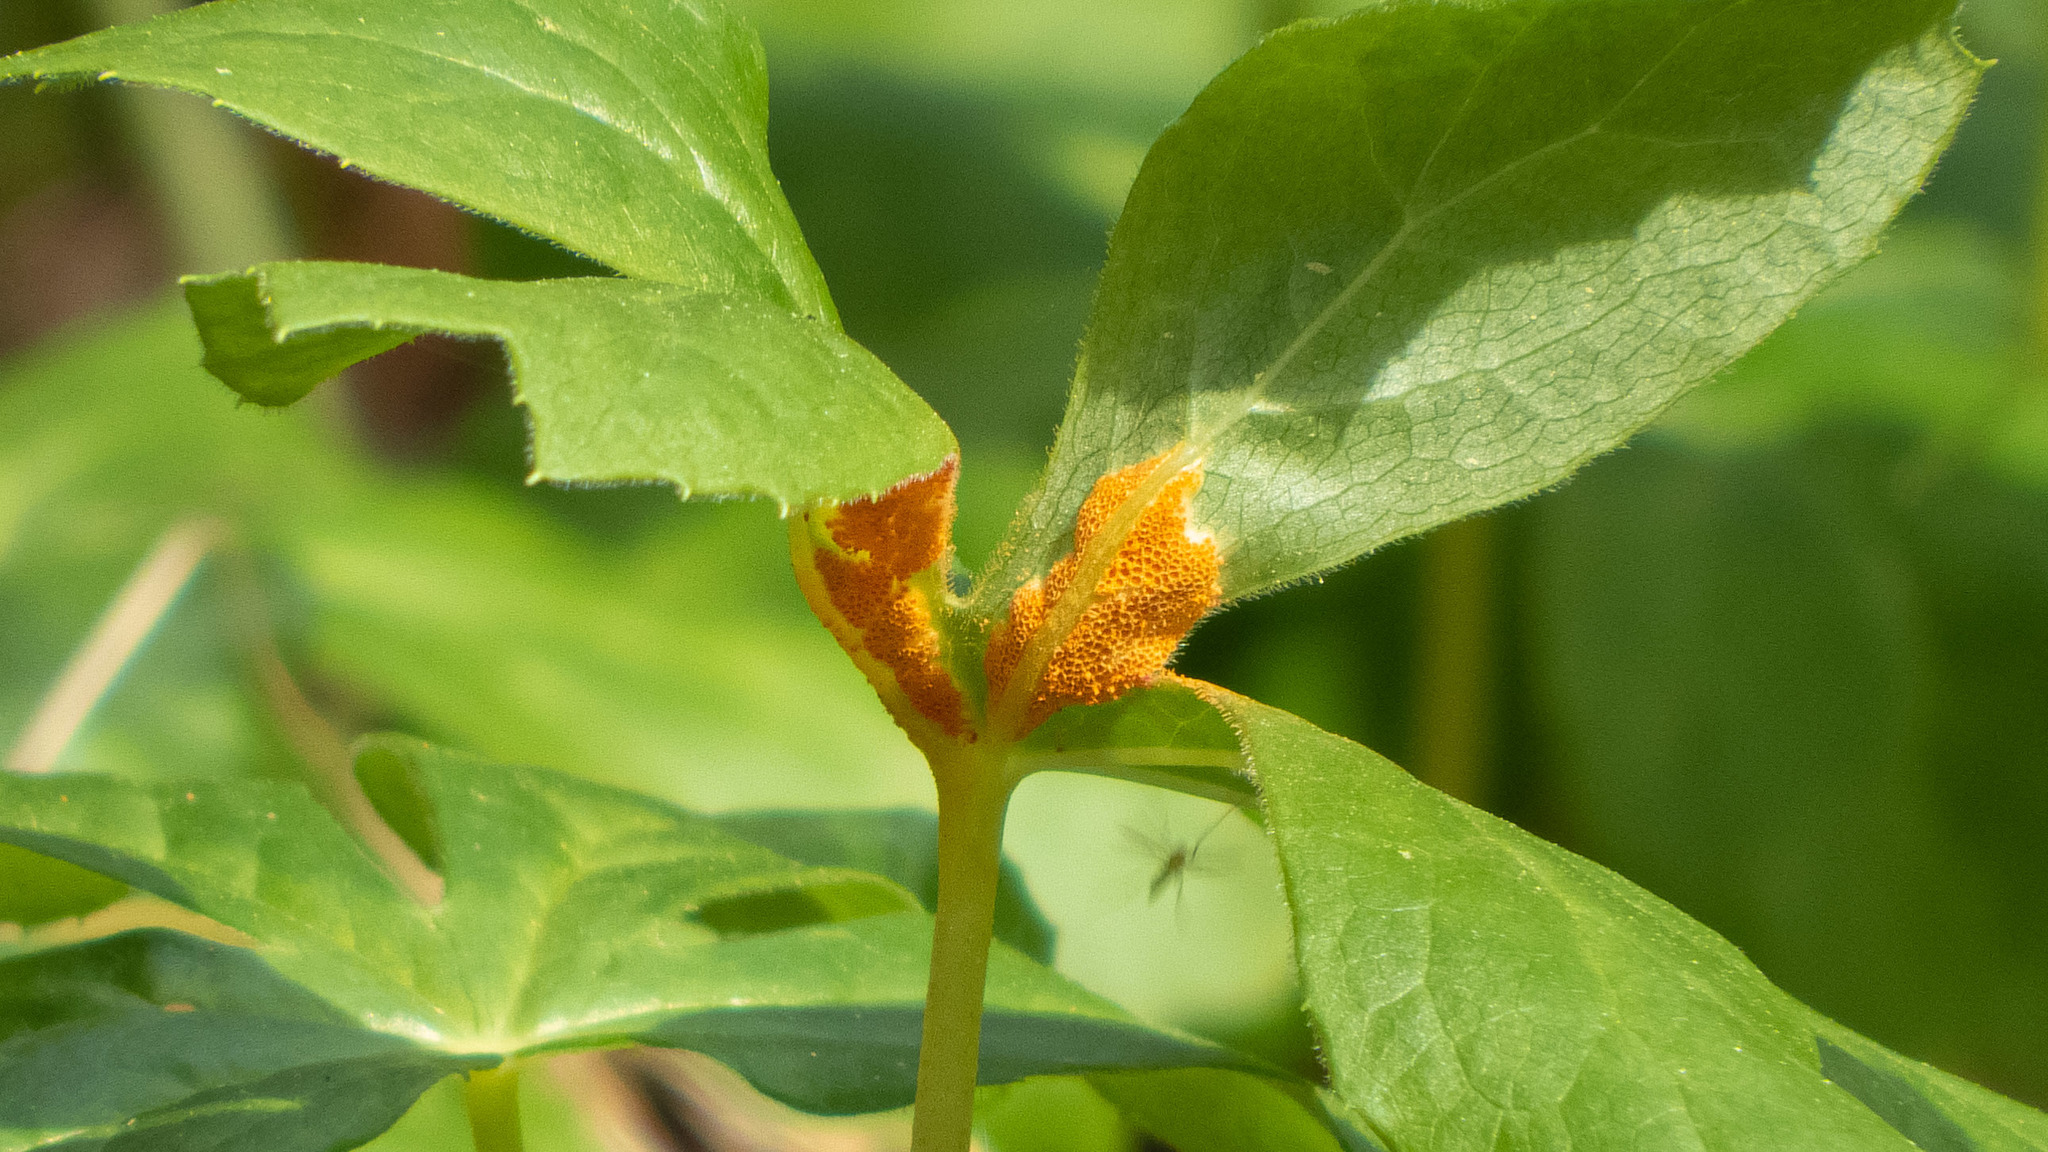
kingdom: Fungi
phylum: Basidiomycota
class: Pucciniomycetes
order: Pucciniales
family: Pucciniaceae
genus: Puccinia
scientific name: Puccinia podophylli
